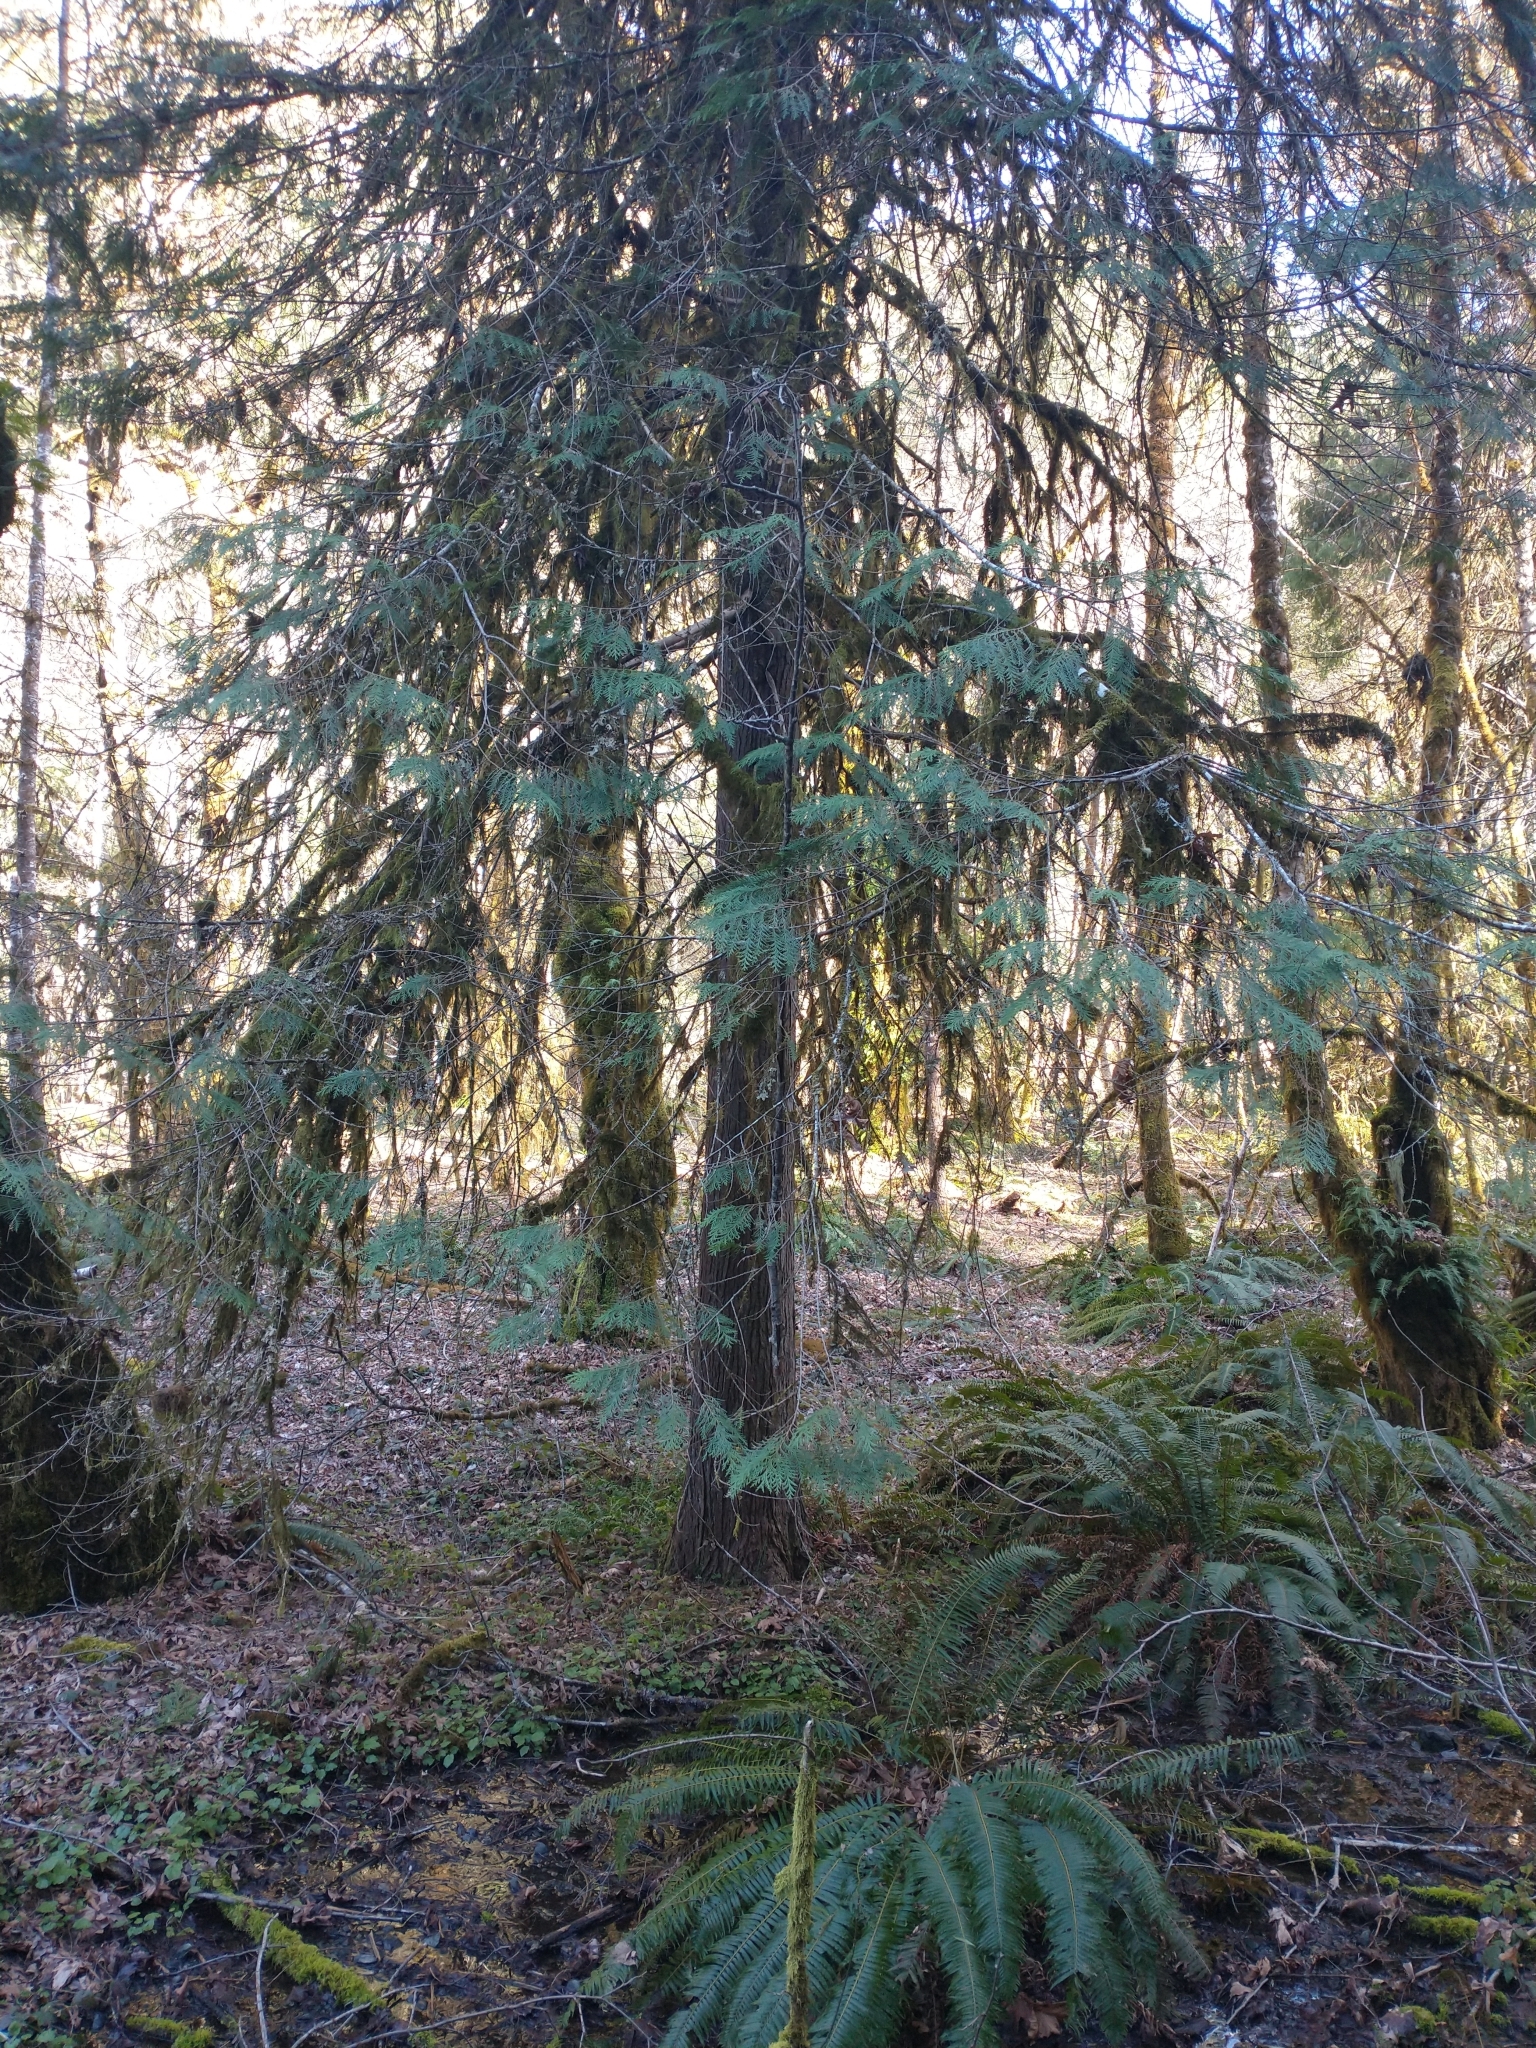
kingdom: Plantae
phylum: Tracheophyta
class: Pinopsida
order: Pinales
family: Cupressaceae
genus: Chamaecyparis
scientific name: Chamaecyparis lawsoniana
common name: Lawson's cypress
